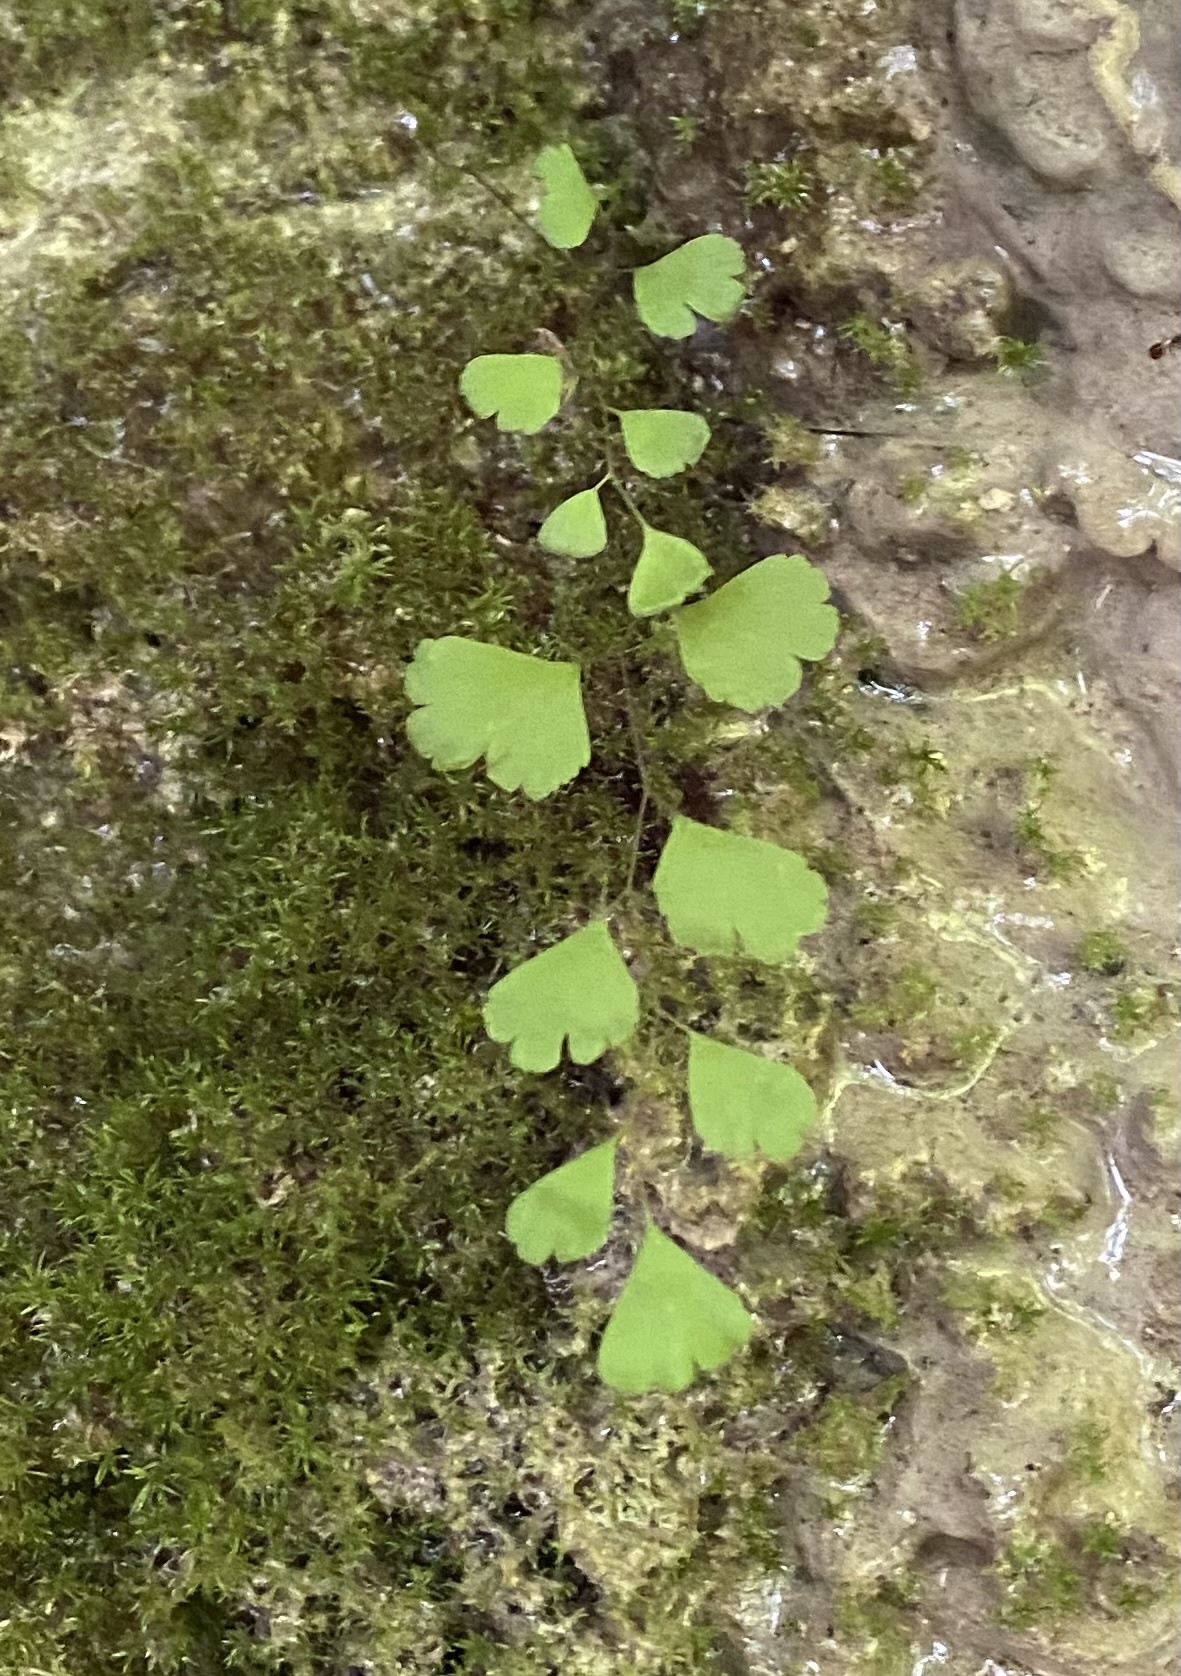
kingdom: Plantae
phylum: Tracheophyta
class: Polypodiopsida
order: Polypodiales
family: Pteridaceae
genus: Adiantum
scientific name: Adiantum capillus-veneris
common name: Maidenhair fern
